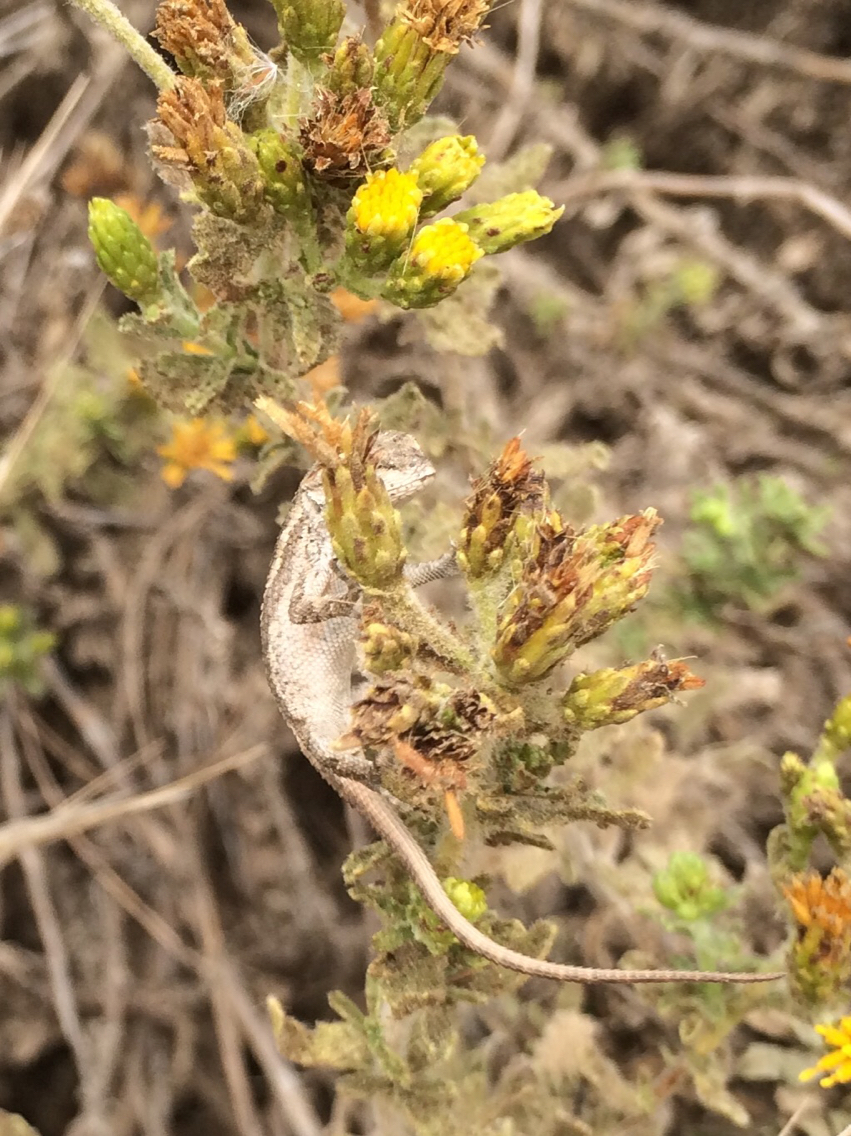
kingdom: Animalia
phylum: Chordata
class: Squamata
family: Phrynosomatidae
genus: Sceloporus
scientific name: Sceloporus occidentalis
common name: Western fence lizard
